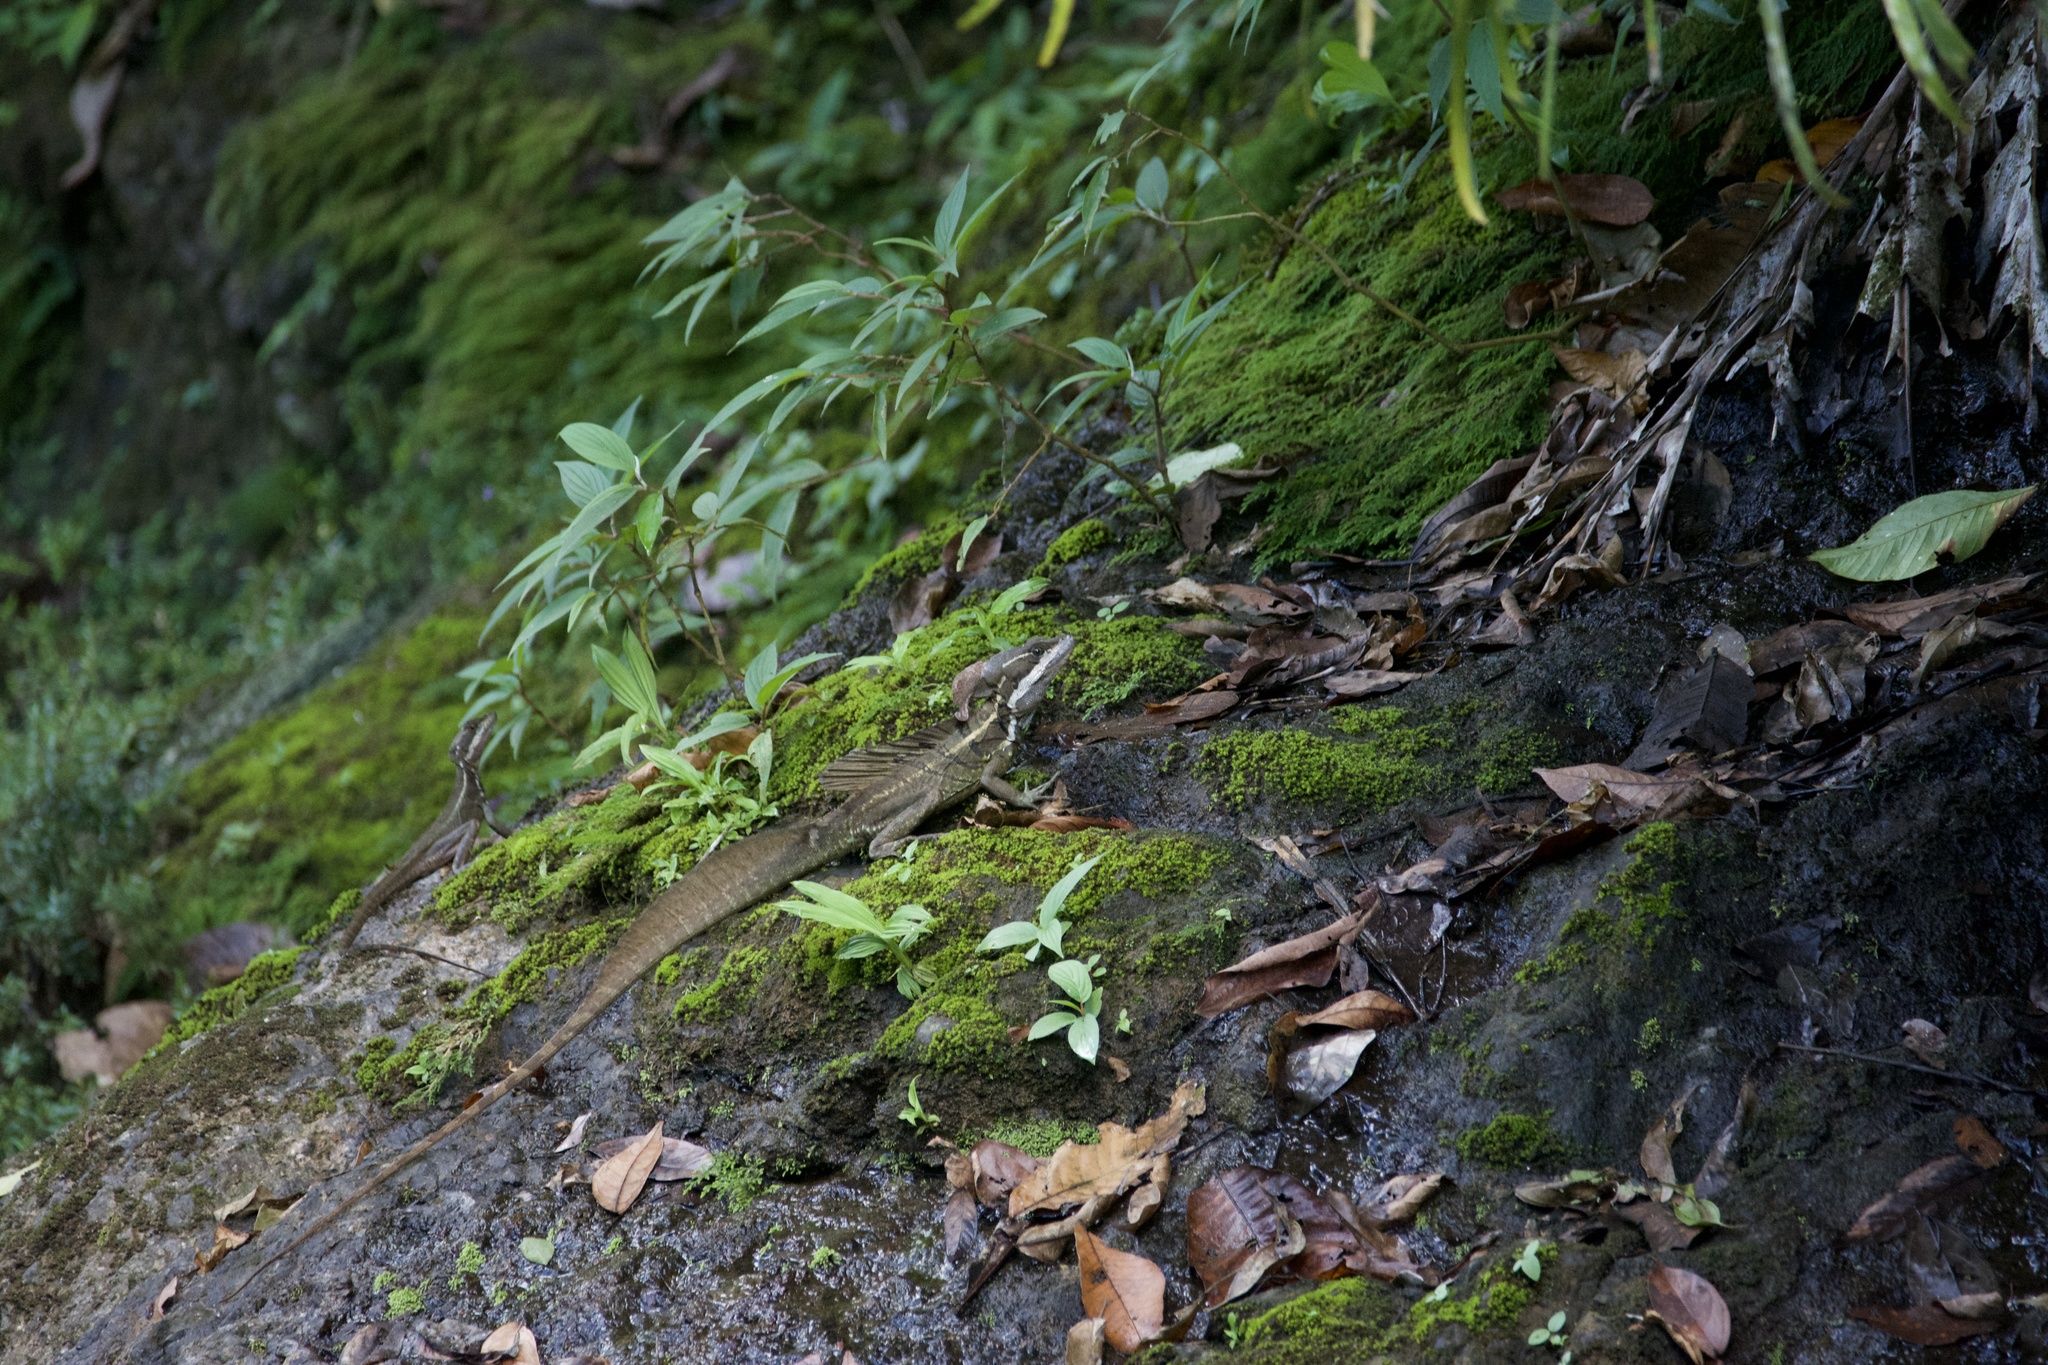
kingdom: Animalia
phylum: Chordata
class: Squamata
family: Corytophanidae
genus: Basiliscus
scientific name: Basiliscus basiliscus
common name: Common basilisk
